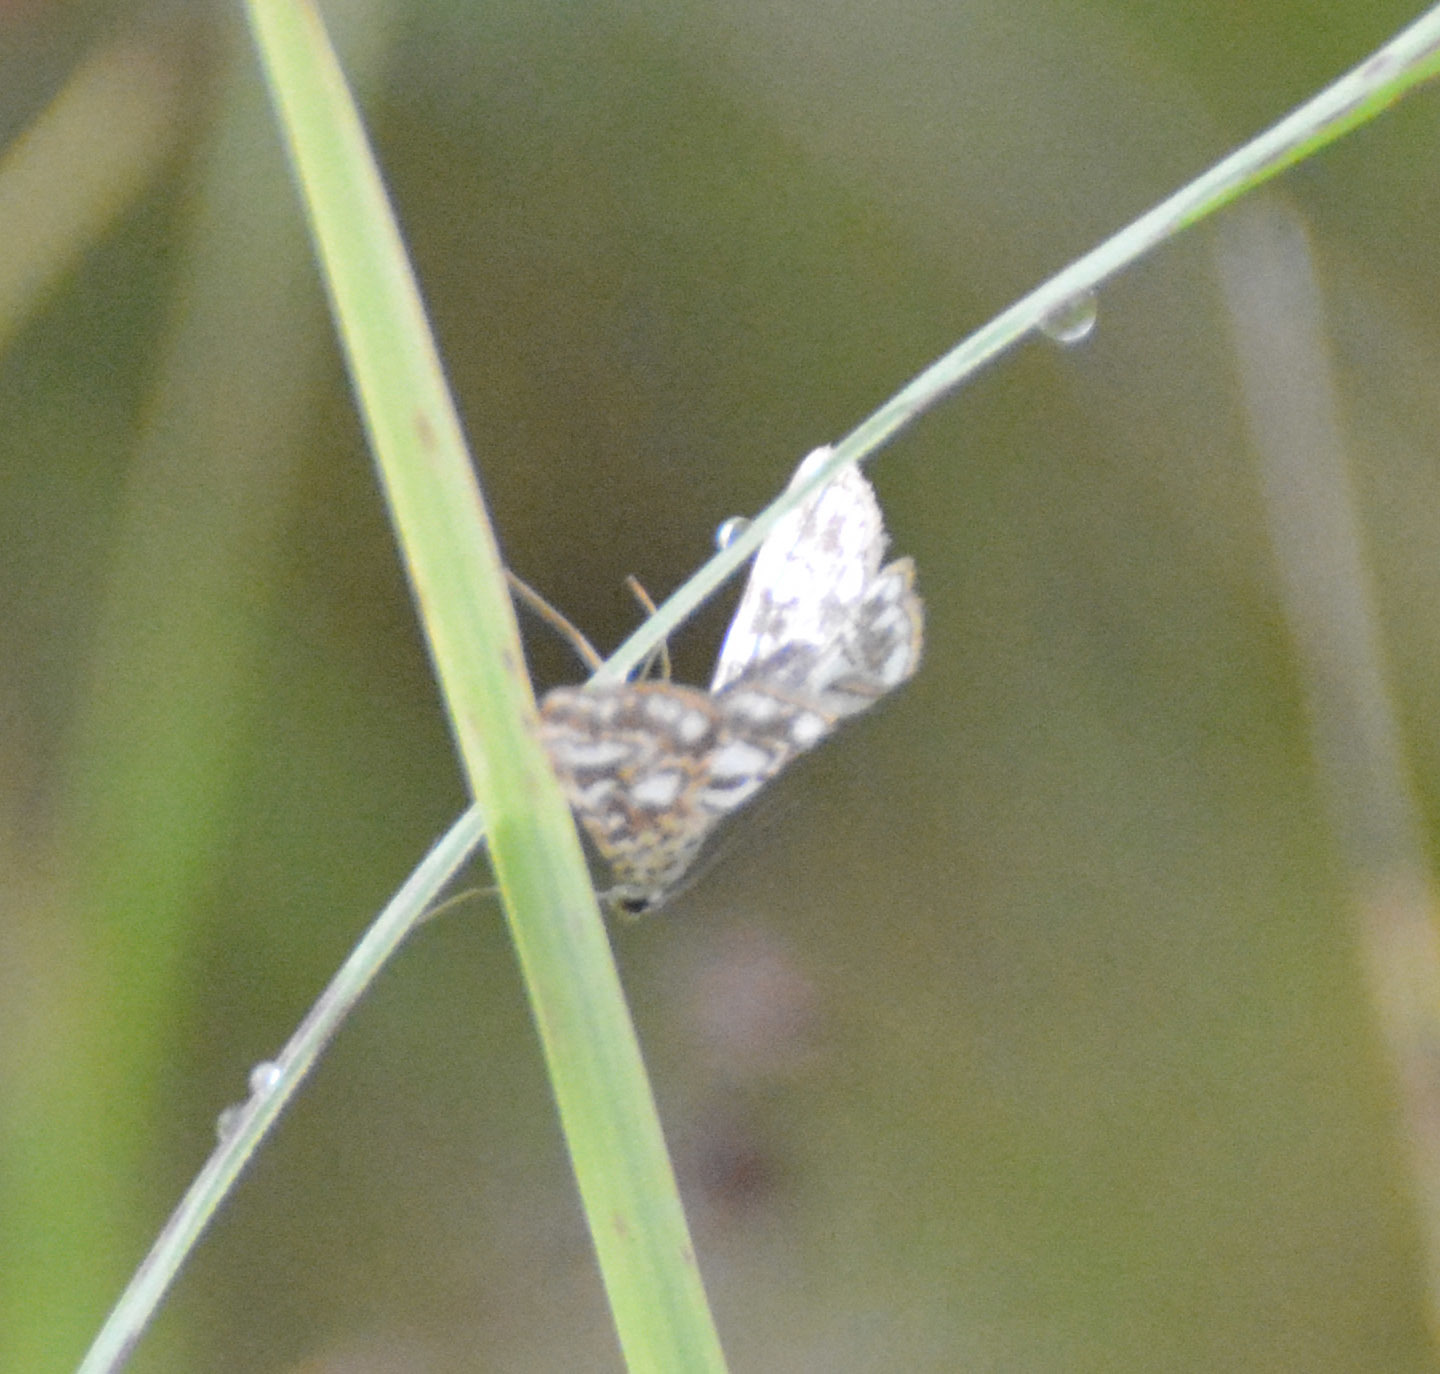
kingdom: Animalia
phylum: Arthropoda
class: Insecta
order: Lepidoptera
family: Crambidae
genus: Elophila
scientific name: Elophila nymphaeata
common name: Brown china-mark
